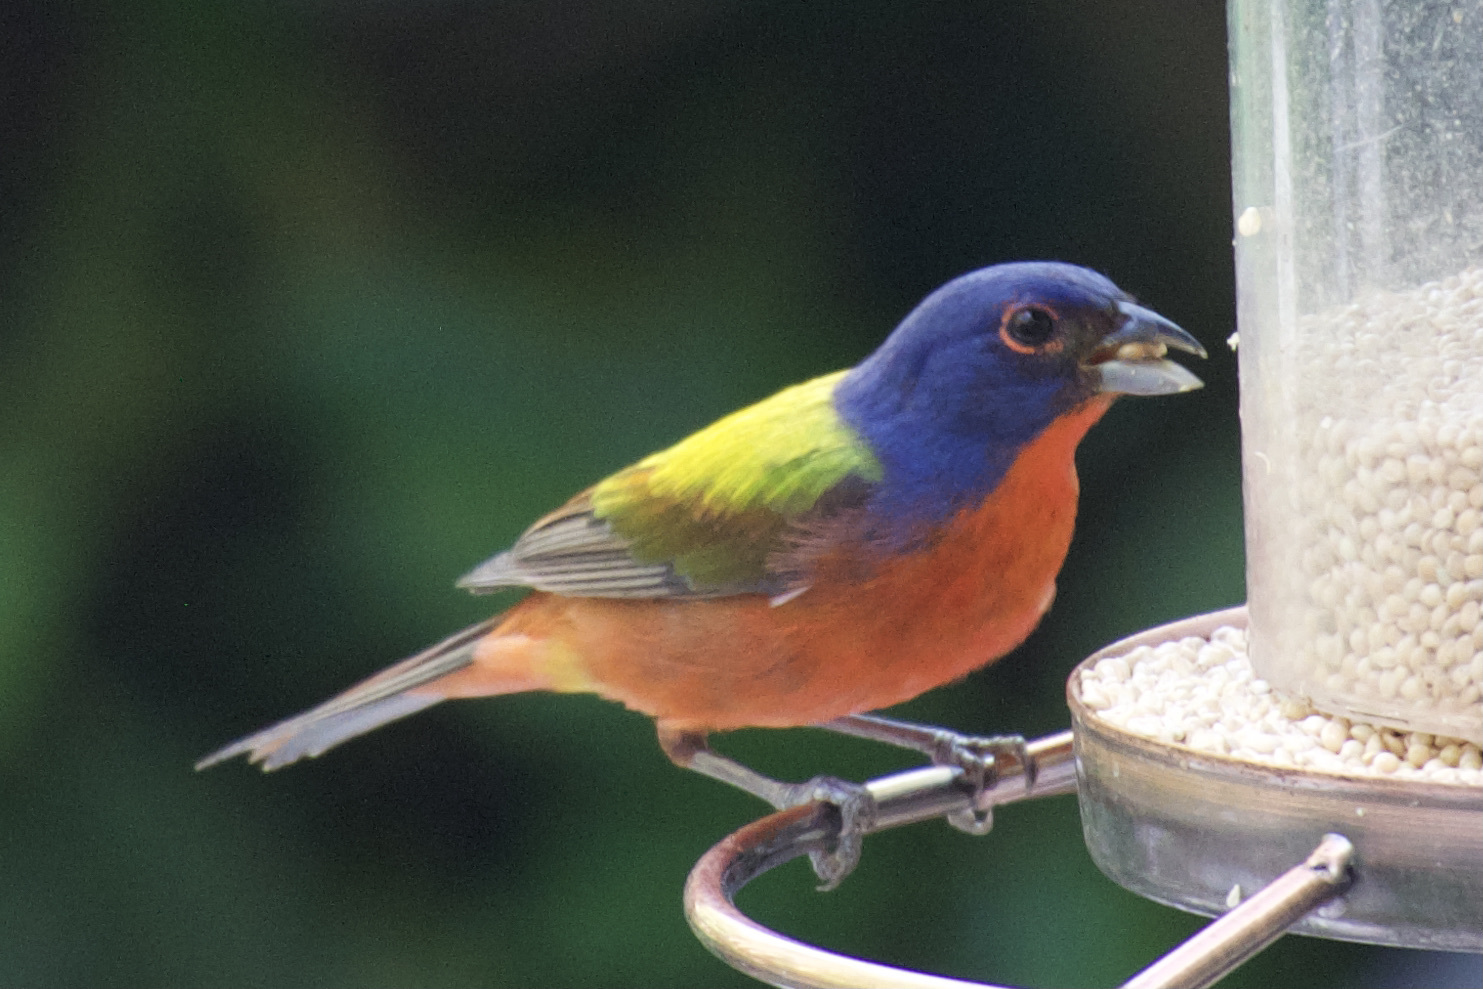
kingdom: Animalia
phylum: Chordata
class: Aves
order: Passeriformes
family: Cardinalidae
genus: Passerina
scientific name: Passerina ciris
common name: Painted bunting
